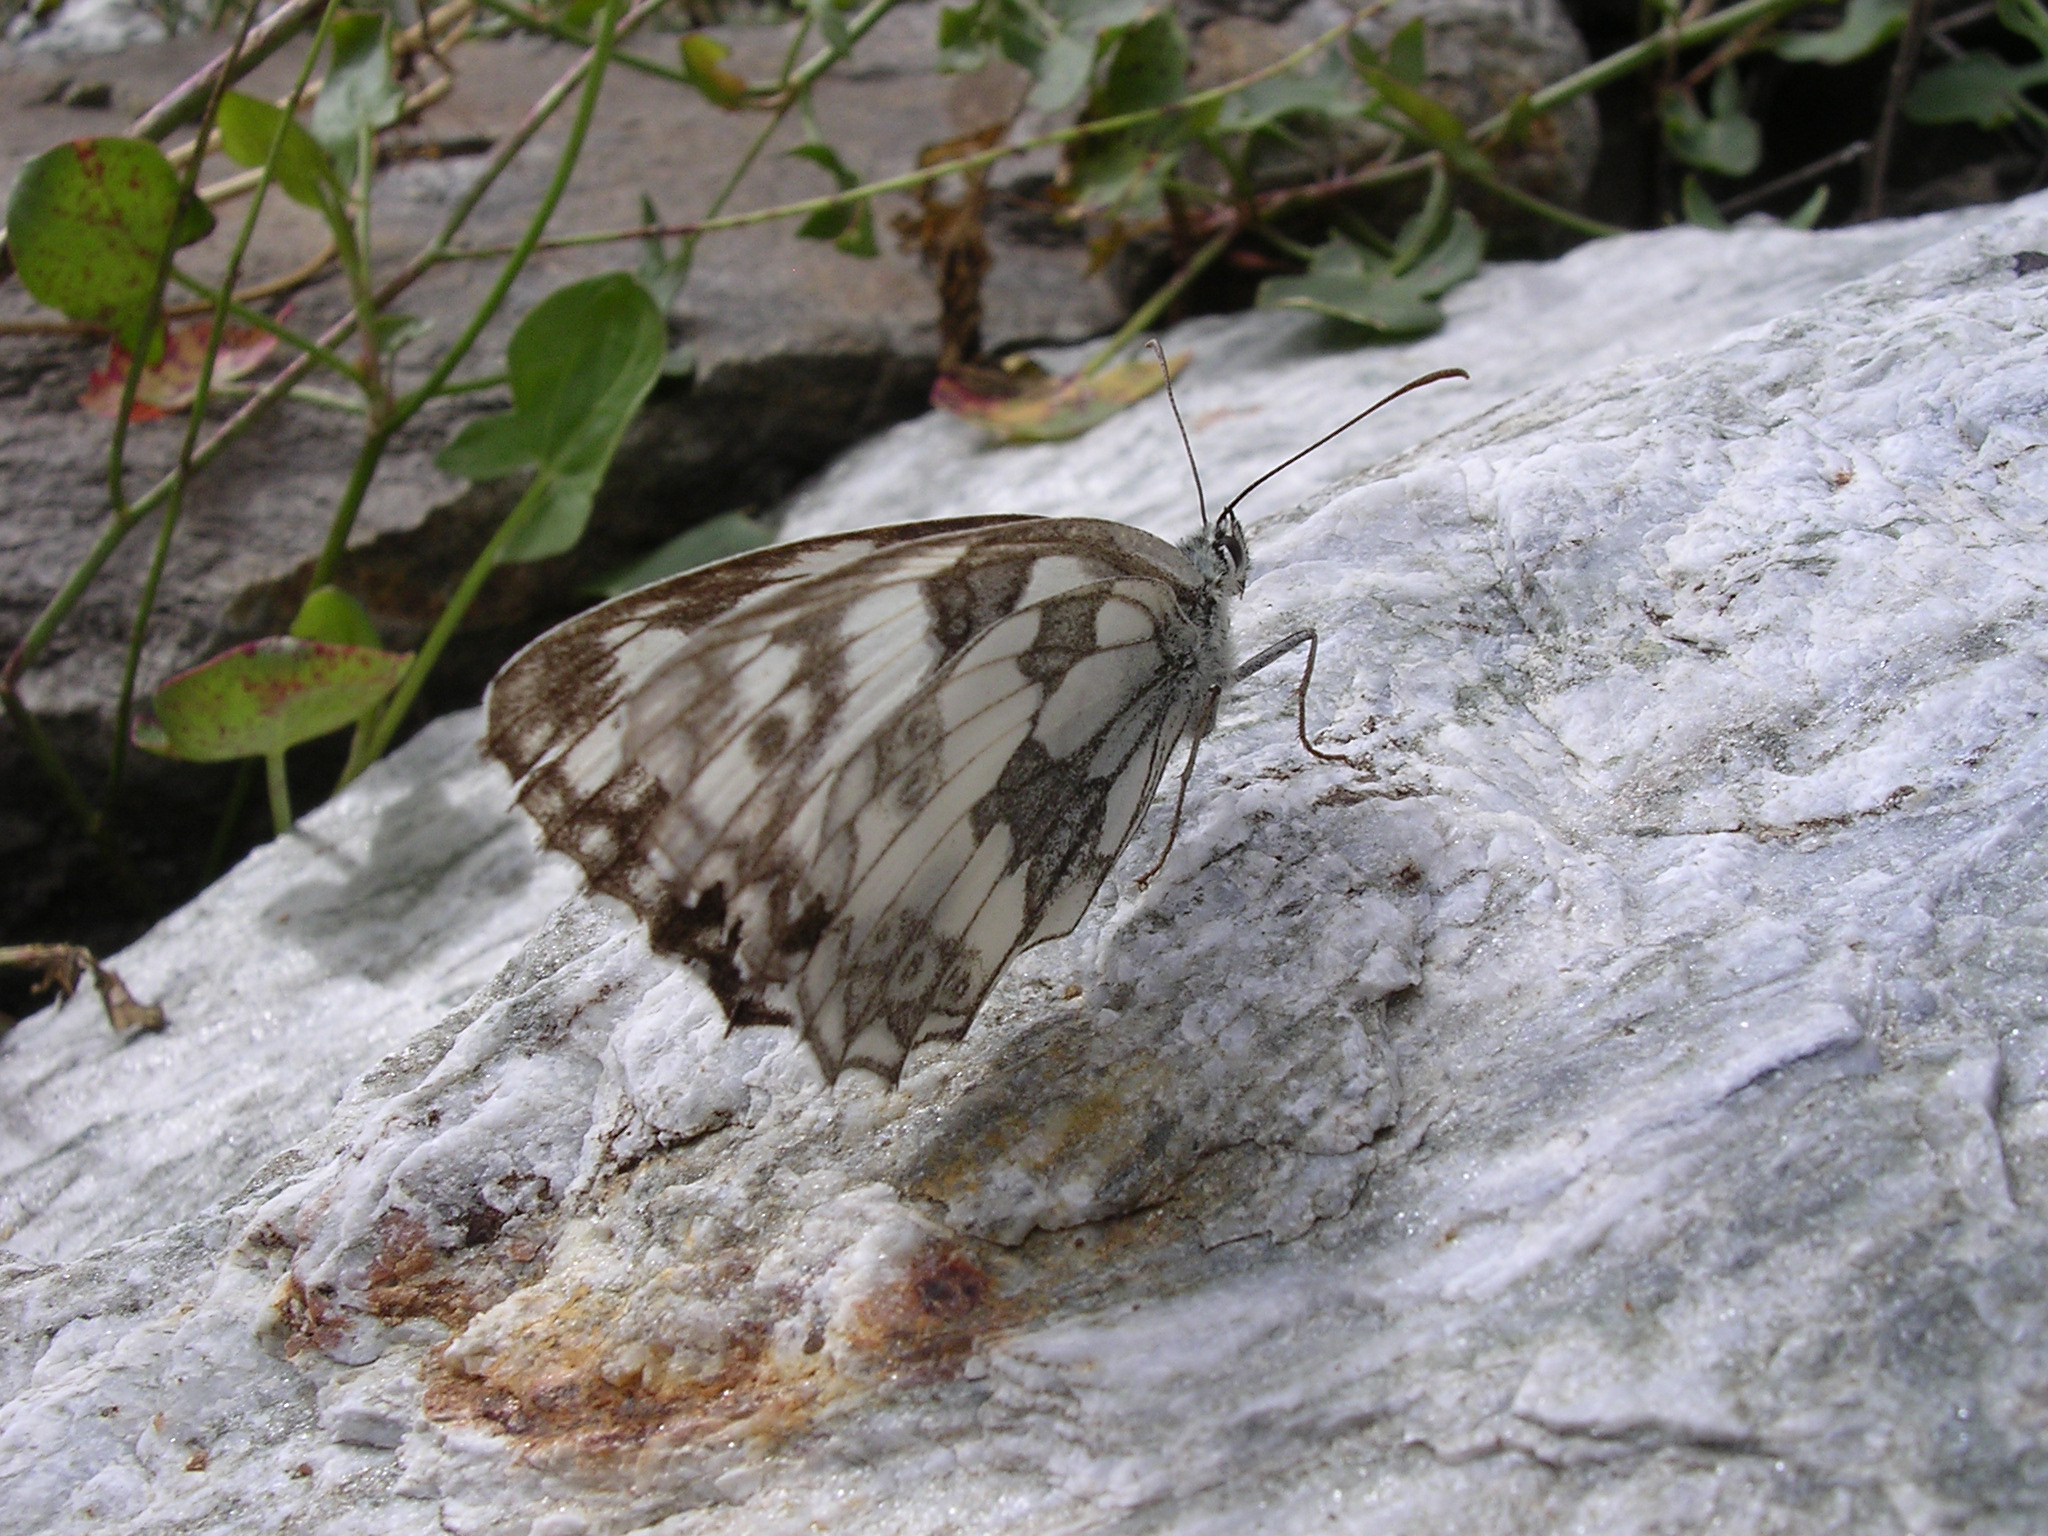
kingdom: Animalia
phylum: Arthropoda
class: Insecta
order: Lepidoptera
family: Nymphalidae
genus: Melanargia
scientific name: Melanargia galathea
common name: Marbled white
